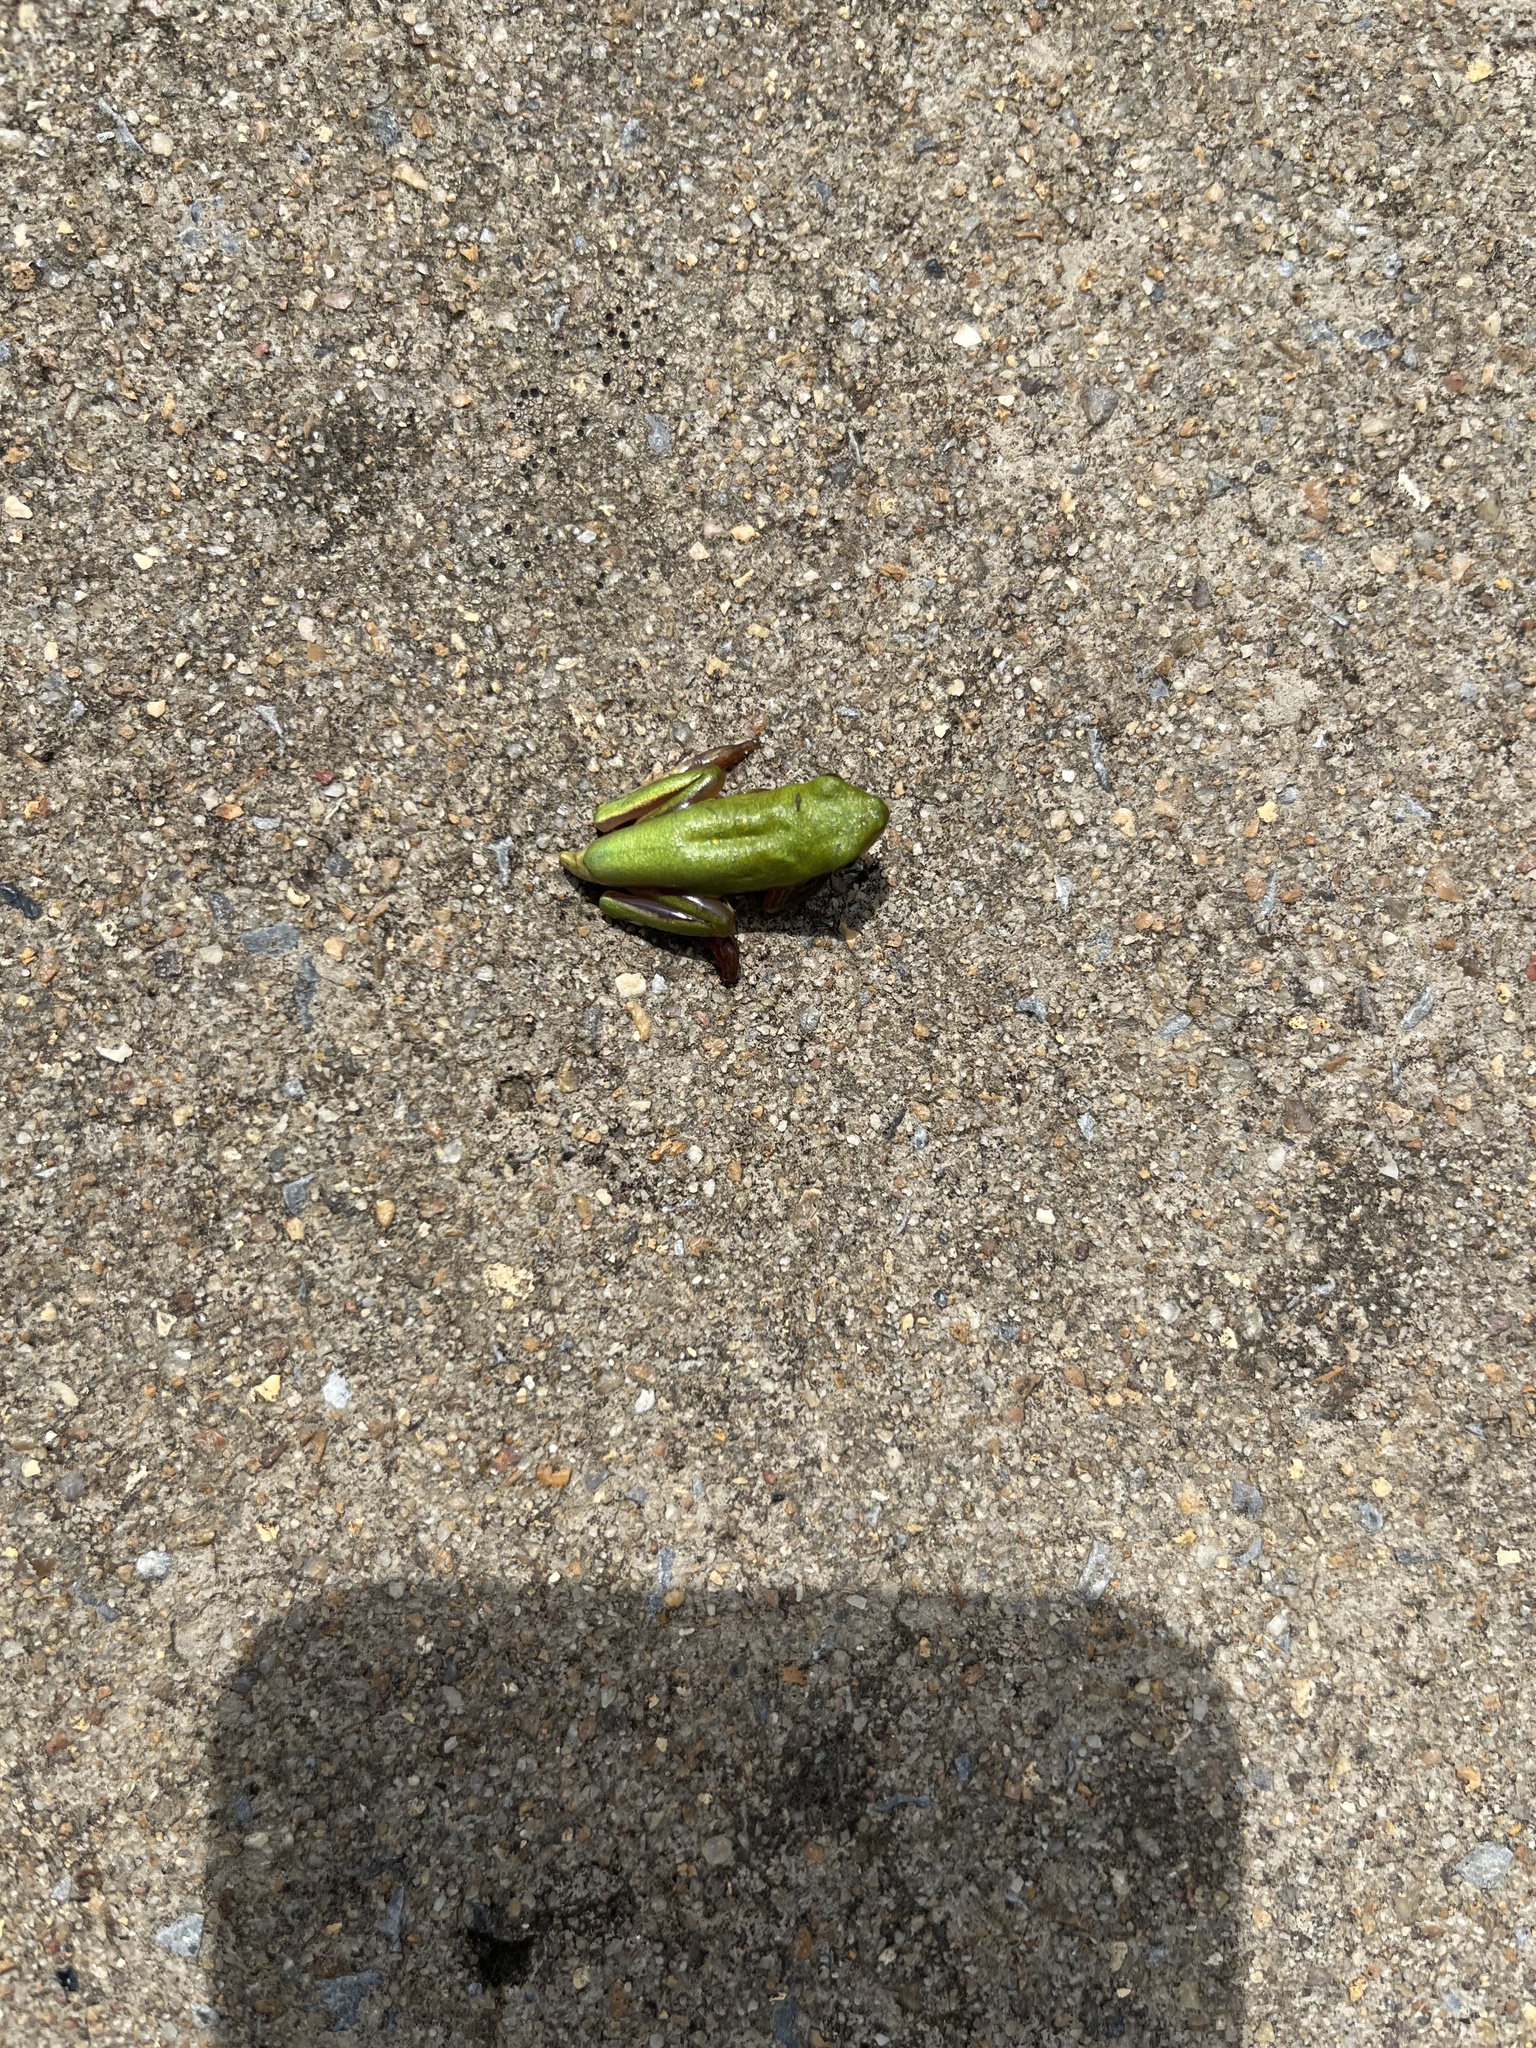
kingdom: Animalia
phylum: Chordata
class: Amphibia
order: Anura
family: Hylidae
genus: Dryophytes
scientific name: Dryophytes cinereus
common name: Green treefrog
